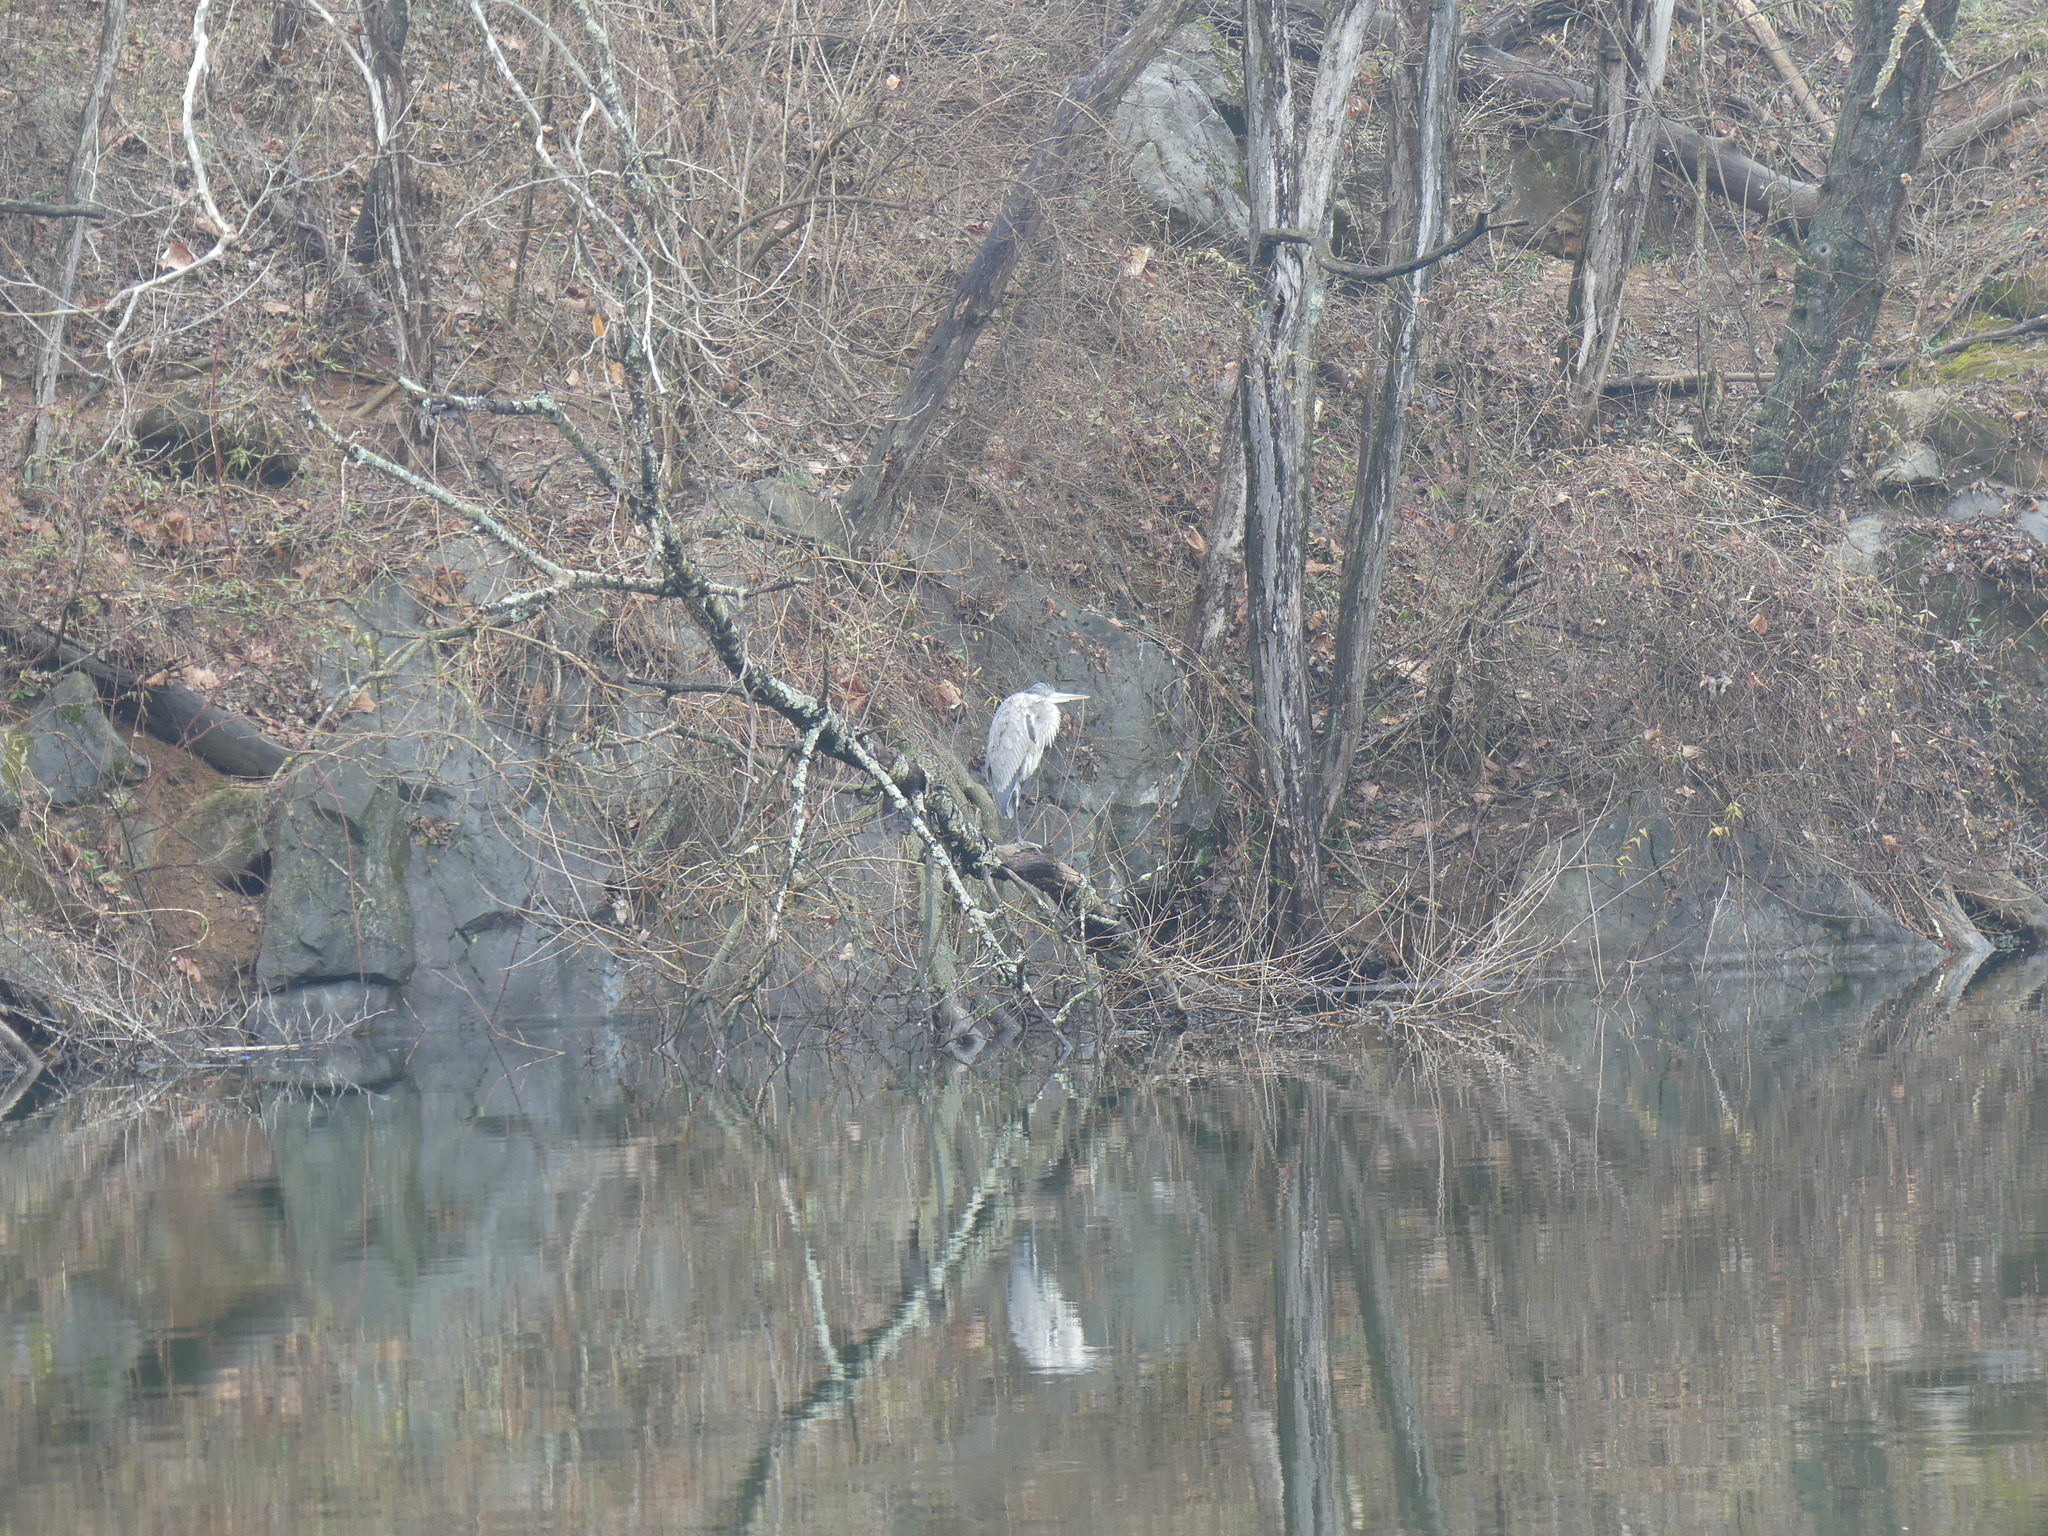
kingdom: Animalia
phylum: Chordata
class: Aves
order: Pelecaniformes
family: Ardeidae
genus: Ardea
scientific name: Ardea herodias
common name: Great blue heron
